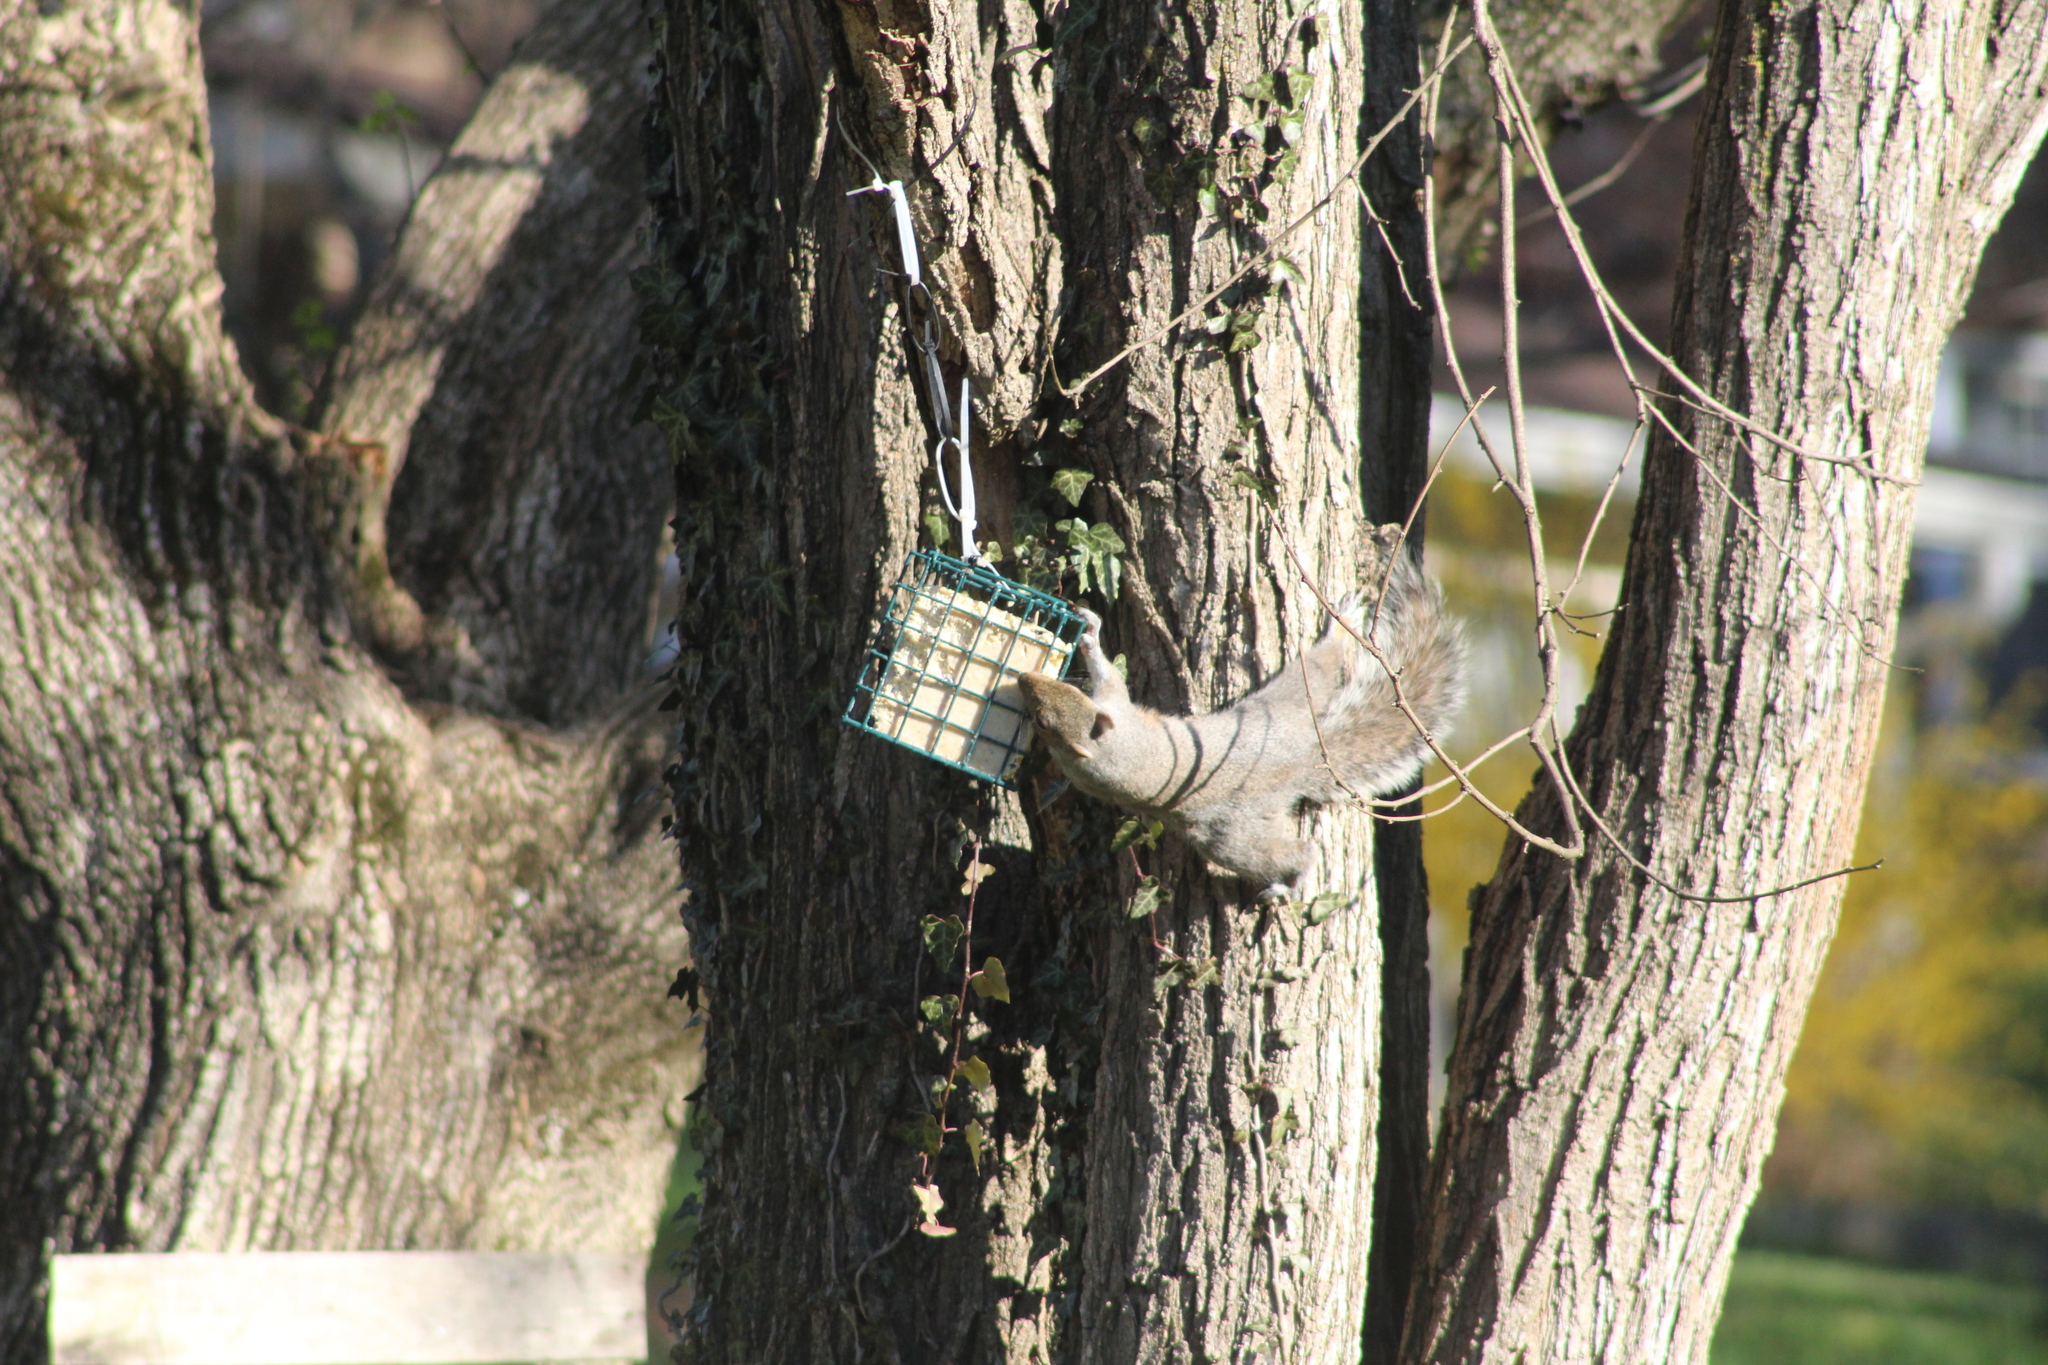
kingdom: Animalia
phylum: Chordata
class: Mammalia
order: Rodentia
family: Sciuridae
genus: Sciurus
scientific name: Sciurus carolinensis
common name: Eastern gray squirrel
